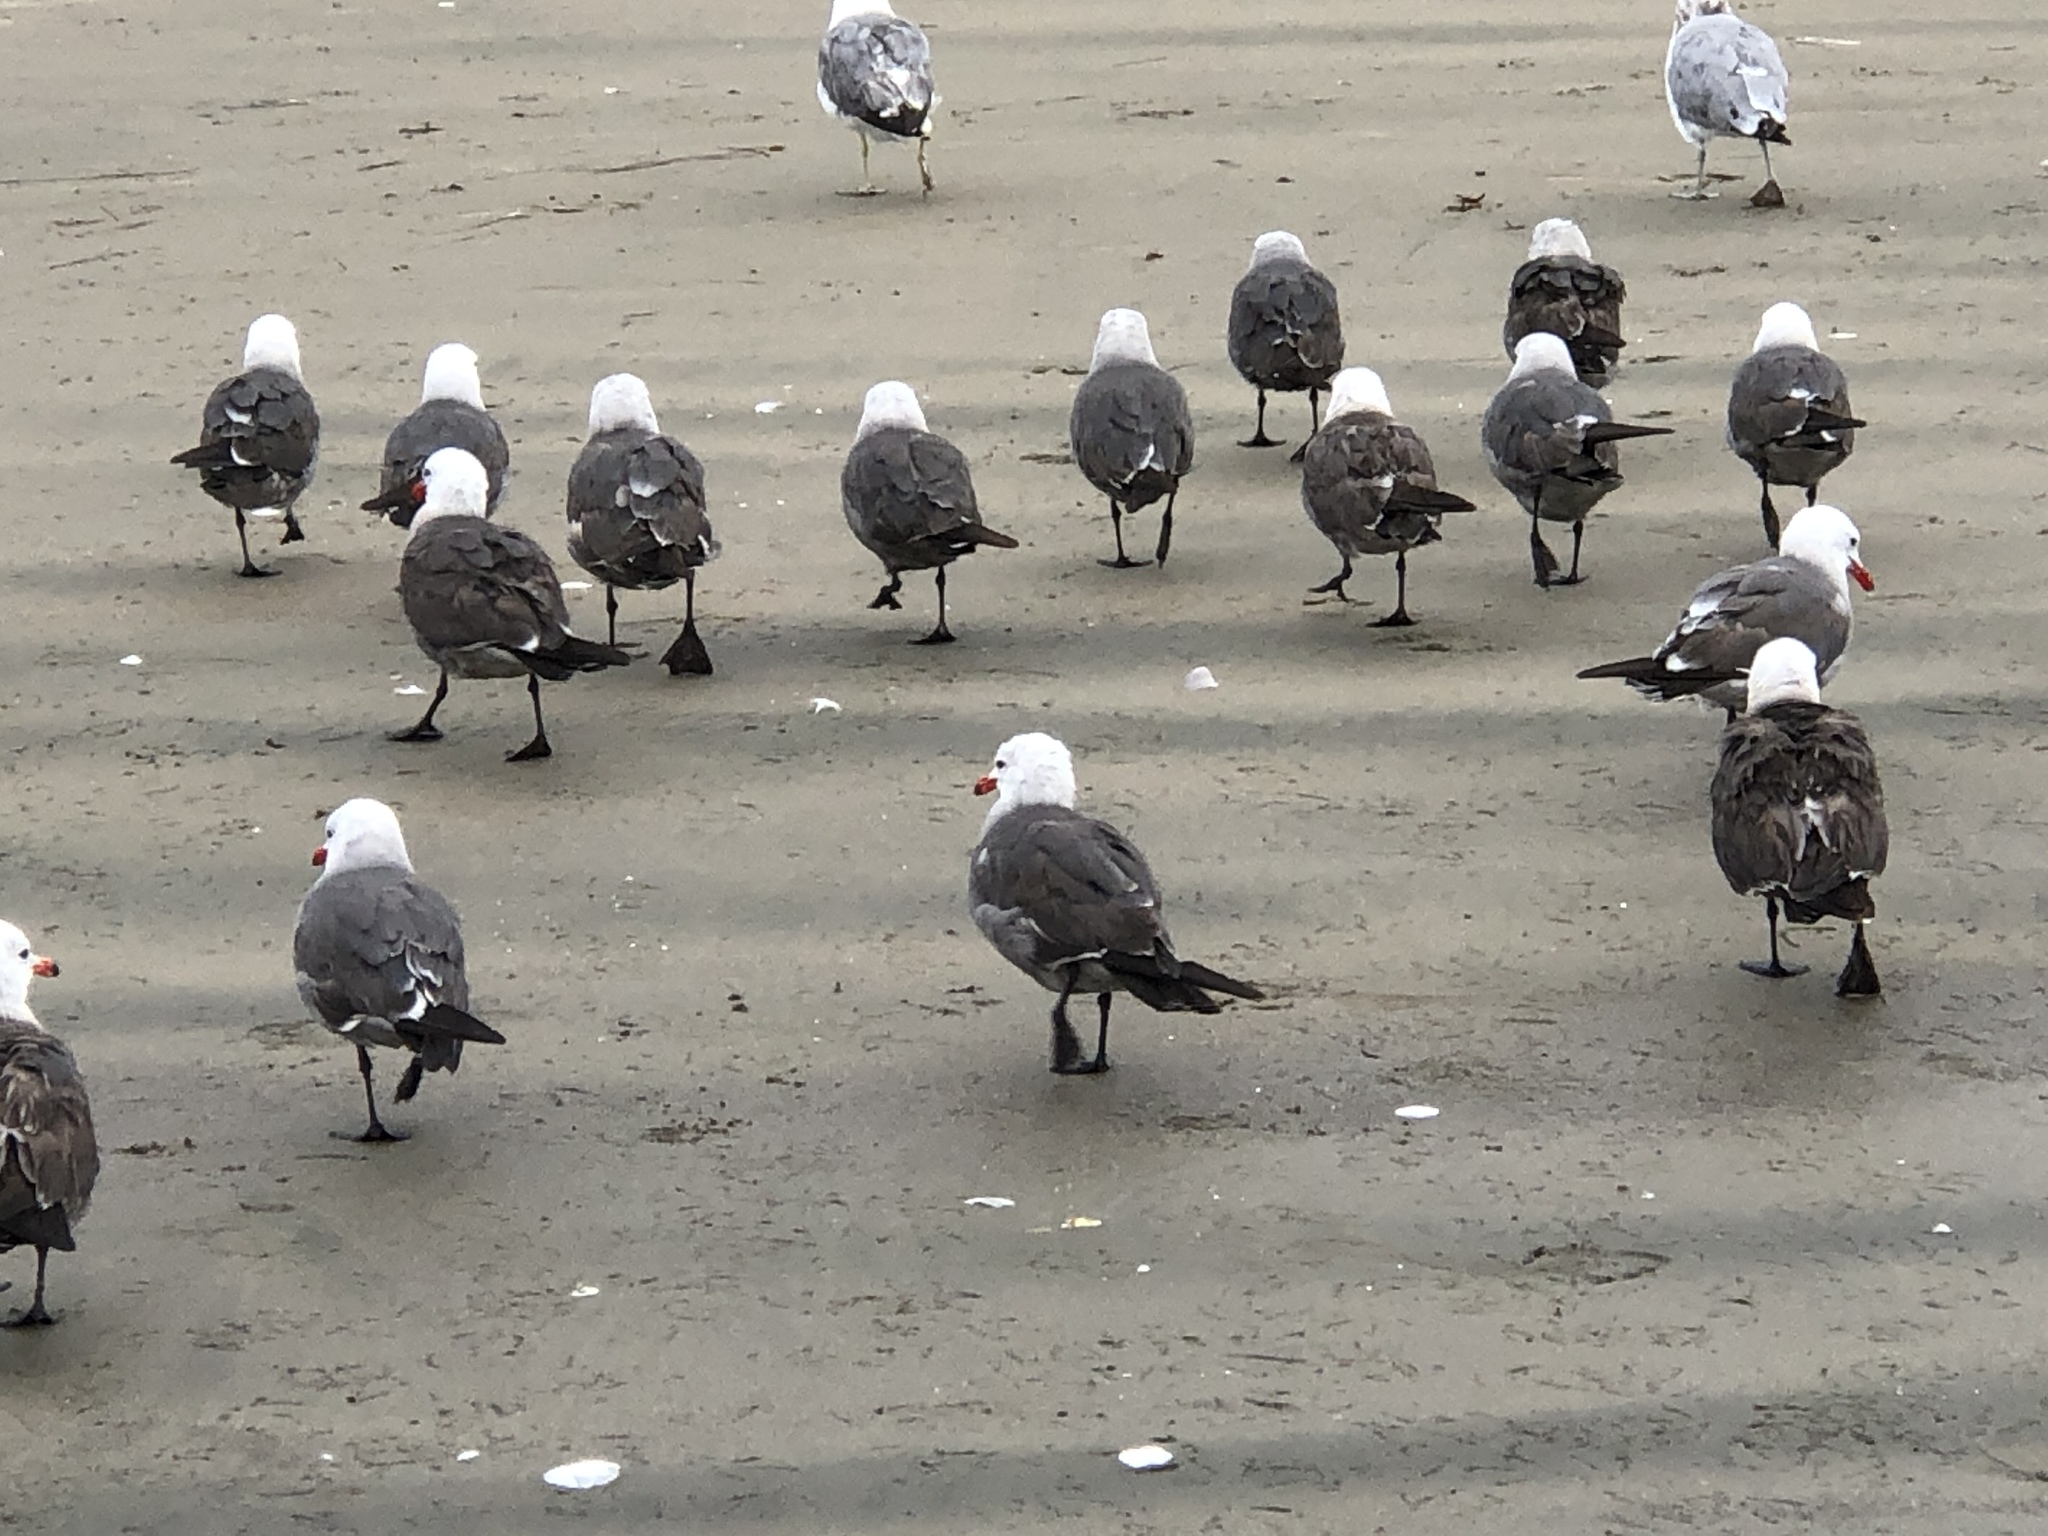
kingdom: Animalia
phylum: Chordata
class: Aves
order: Charadriiformes
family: Laridae
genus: Larus
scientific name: Larus heermanni
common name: Heermann's gull
